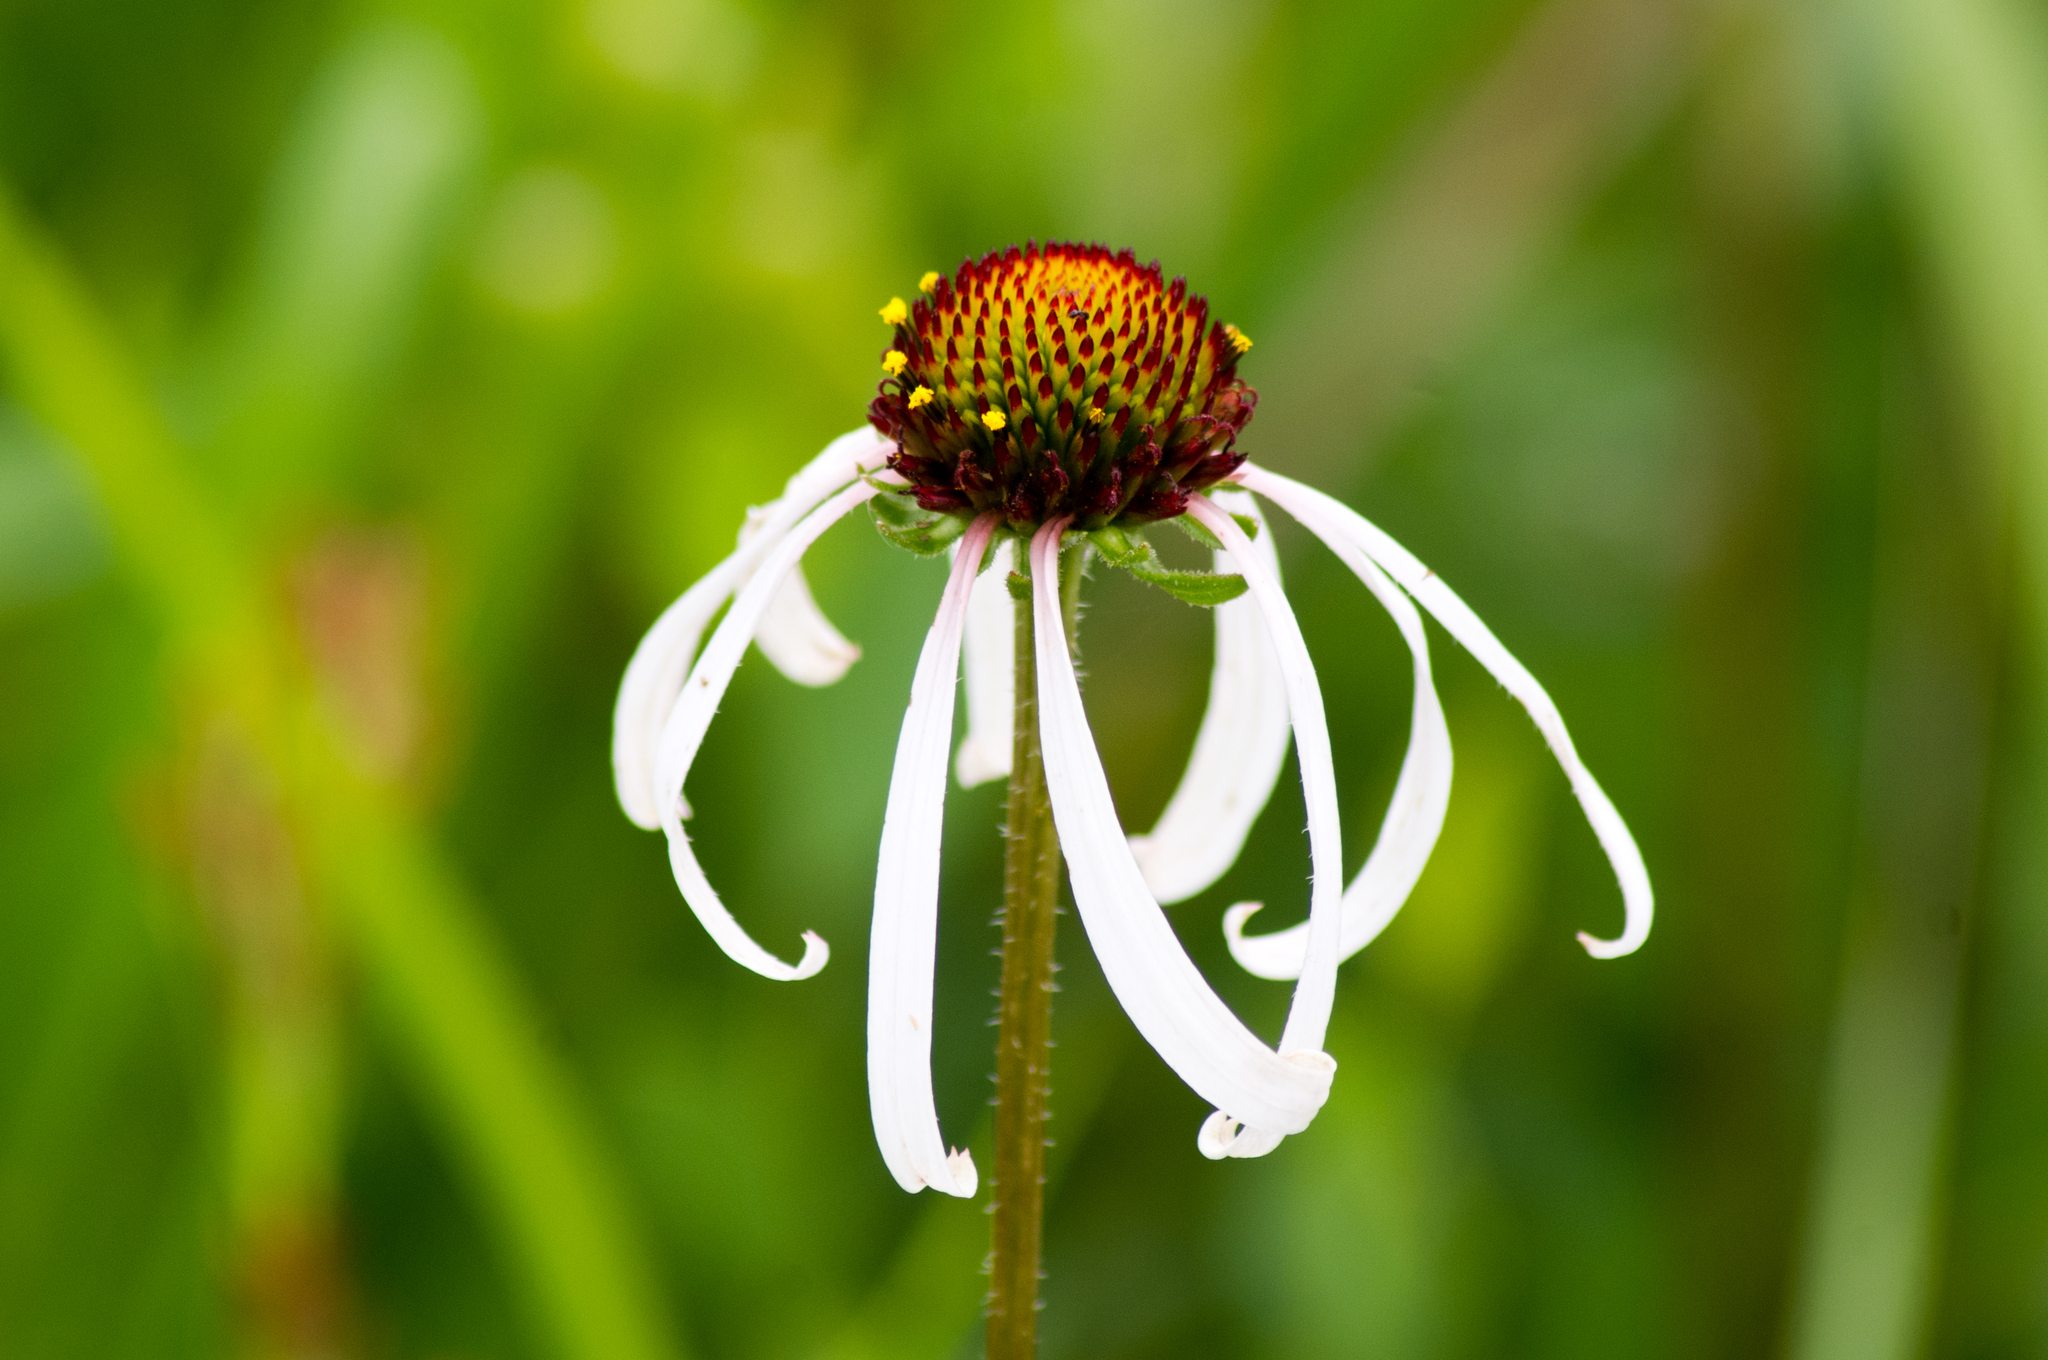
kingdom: Plantae
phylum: Tracheophyta
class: Magnoliopsida
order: Asterales
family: Asteraceae
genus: Echinacea
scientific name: Echinacea sanguinea
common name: Sanguine purple-coneflower
